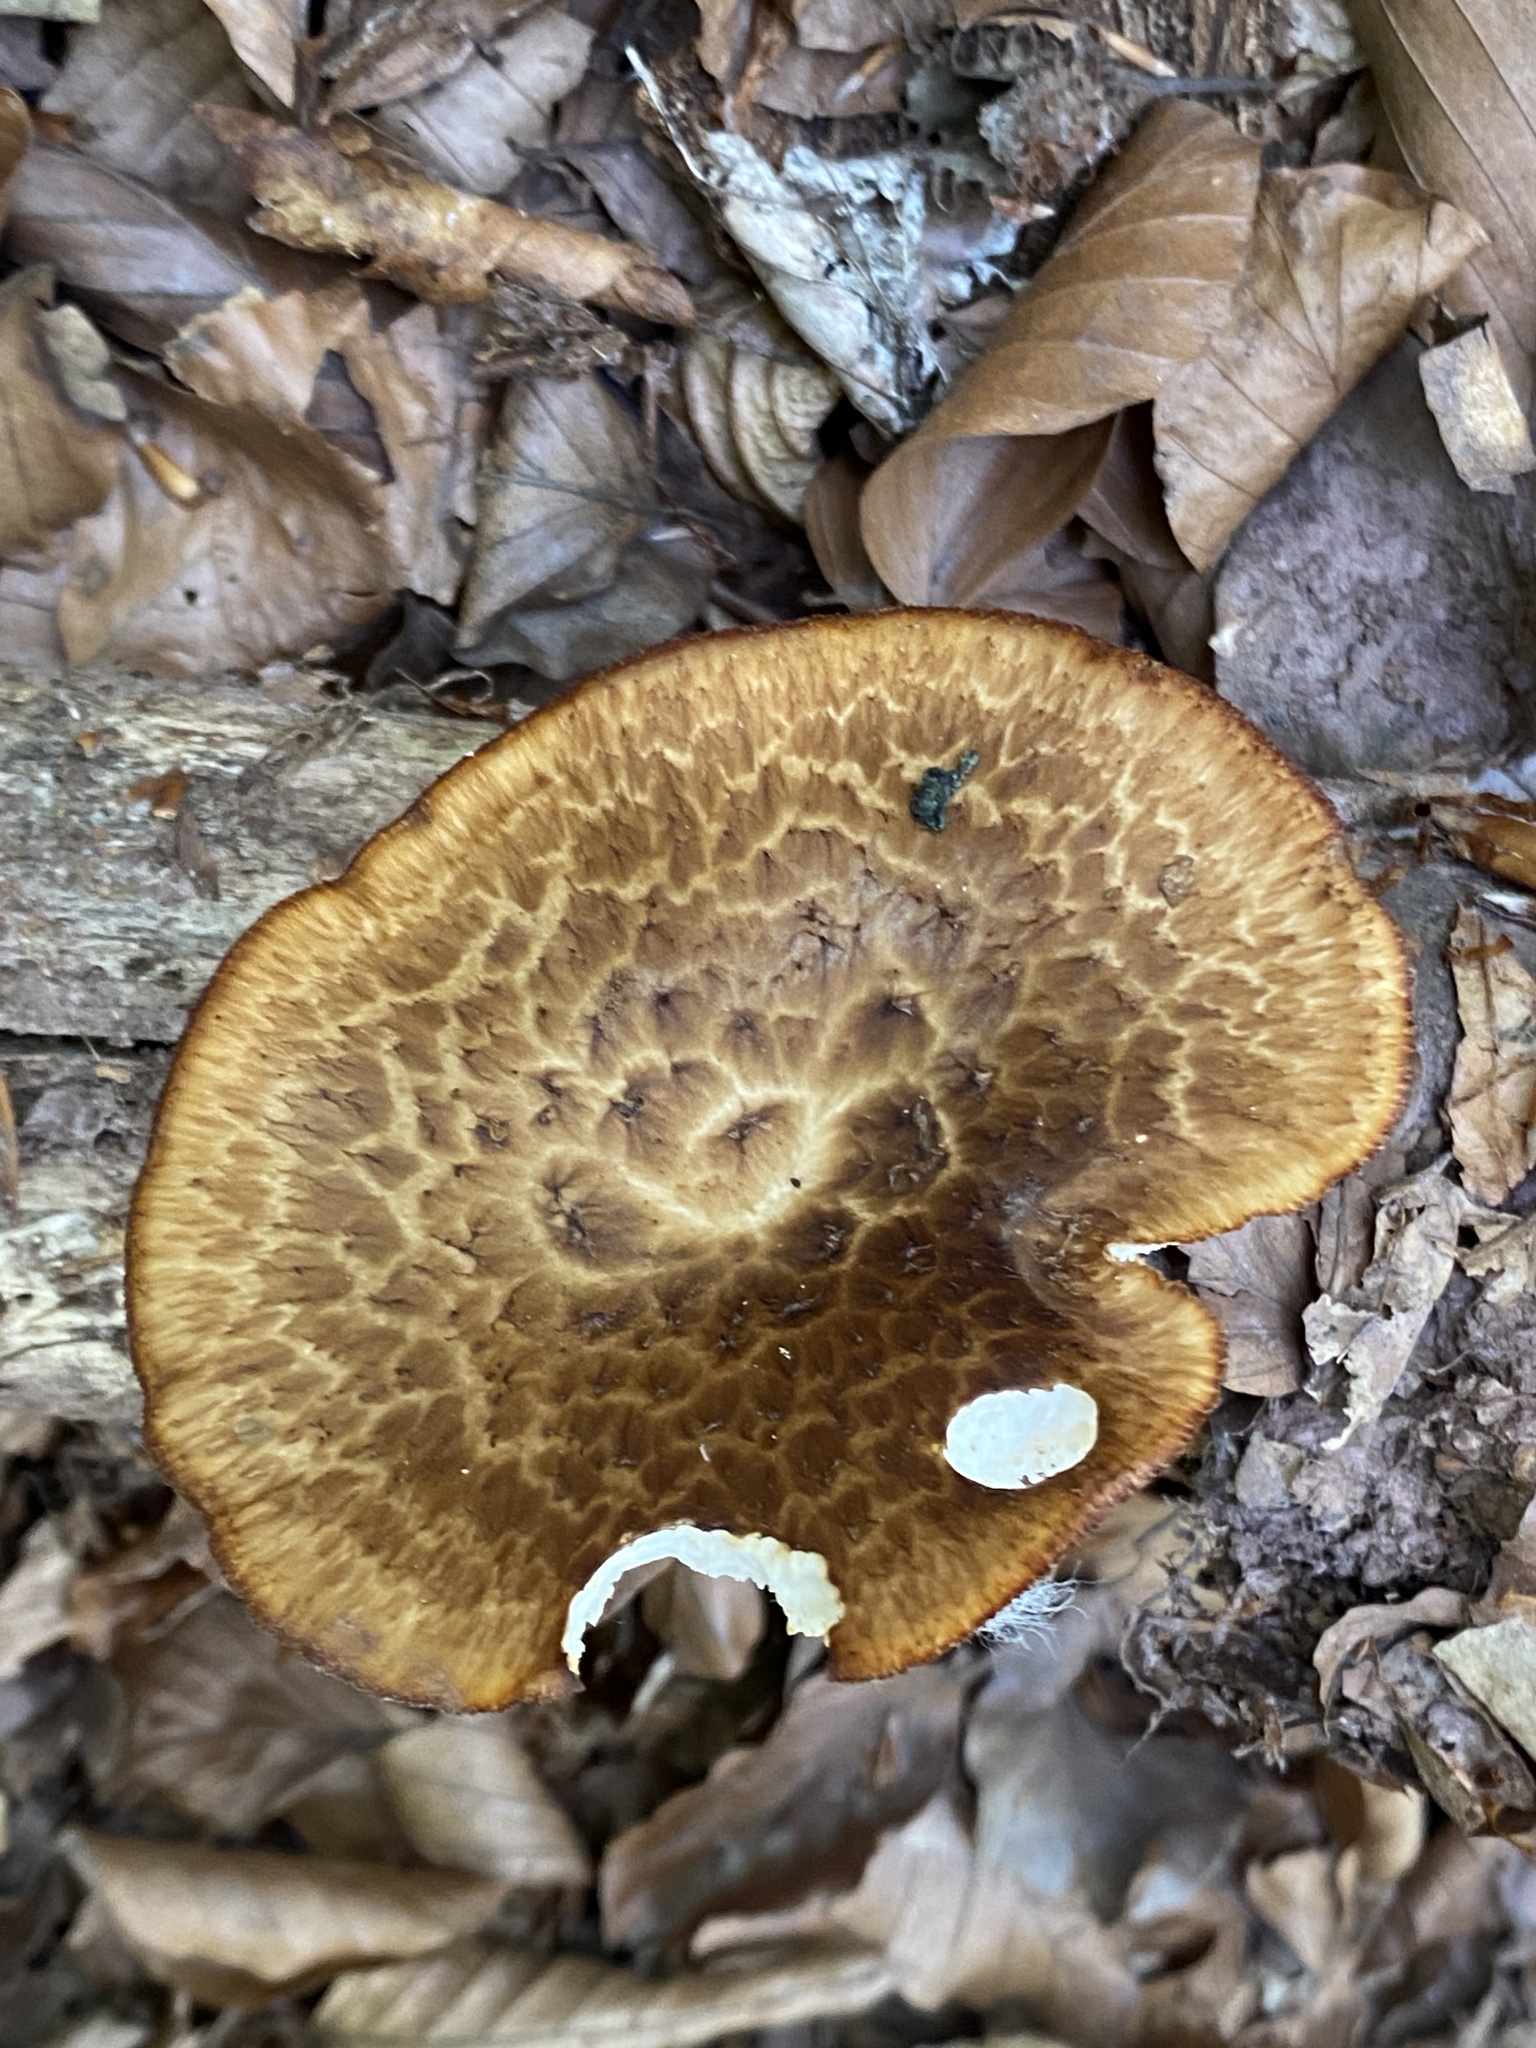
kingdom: Fungi
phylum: Basidiomycota
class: Agaricomycetes
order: Polyporales
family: Polyporaceae
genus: Polyporus
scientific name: Polyporus tuberaster
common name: Tuberous polypore
